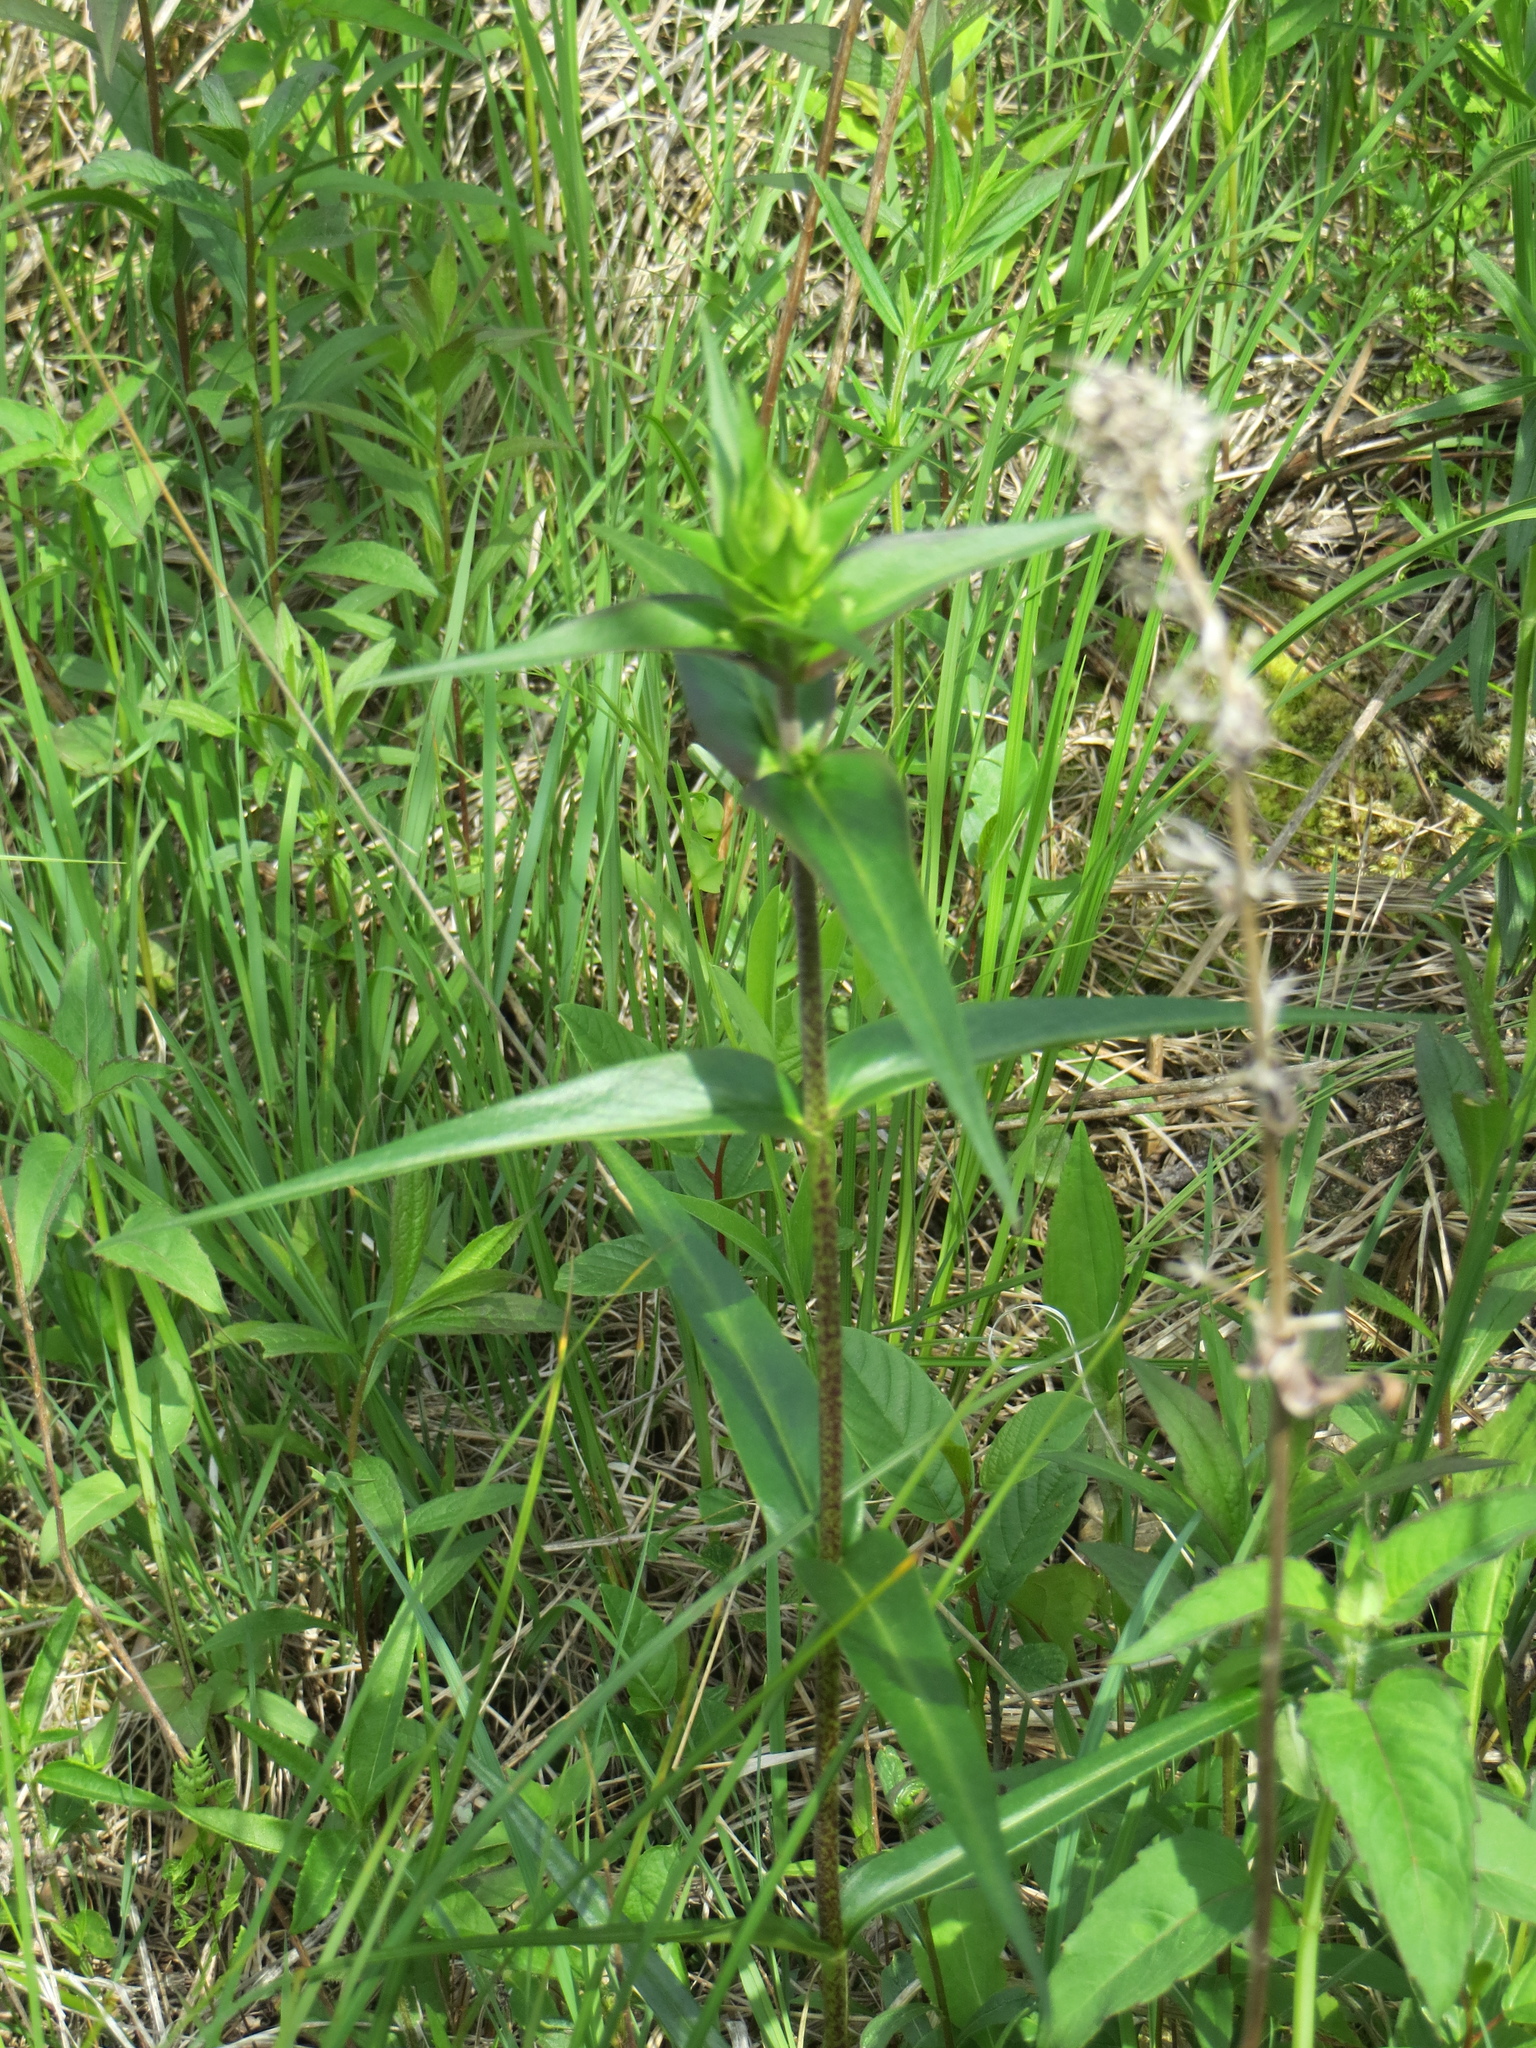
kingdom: Plantae
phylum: Tracheophyta
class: Magnoliopsida
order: Ericales
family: Polemoniaceae
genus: Phlox
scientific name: Phlox maculata
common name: Meadow phlox
